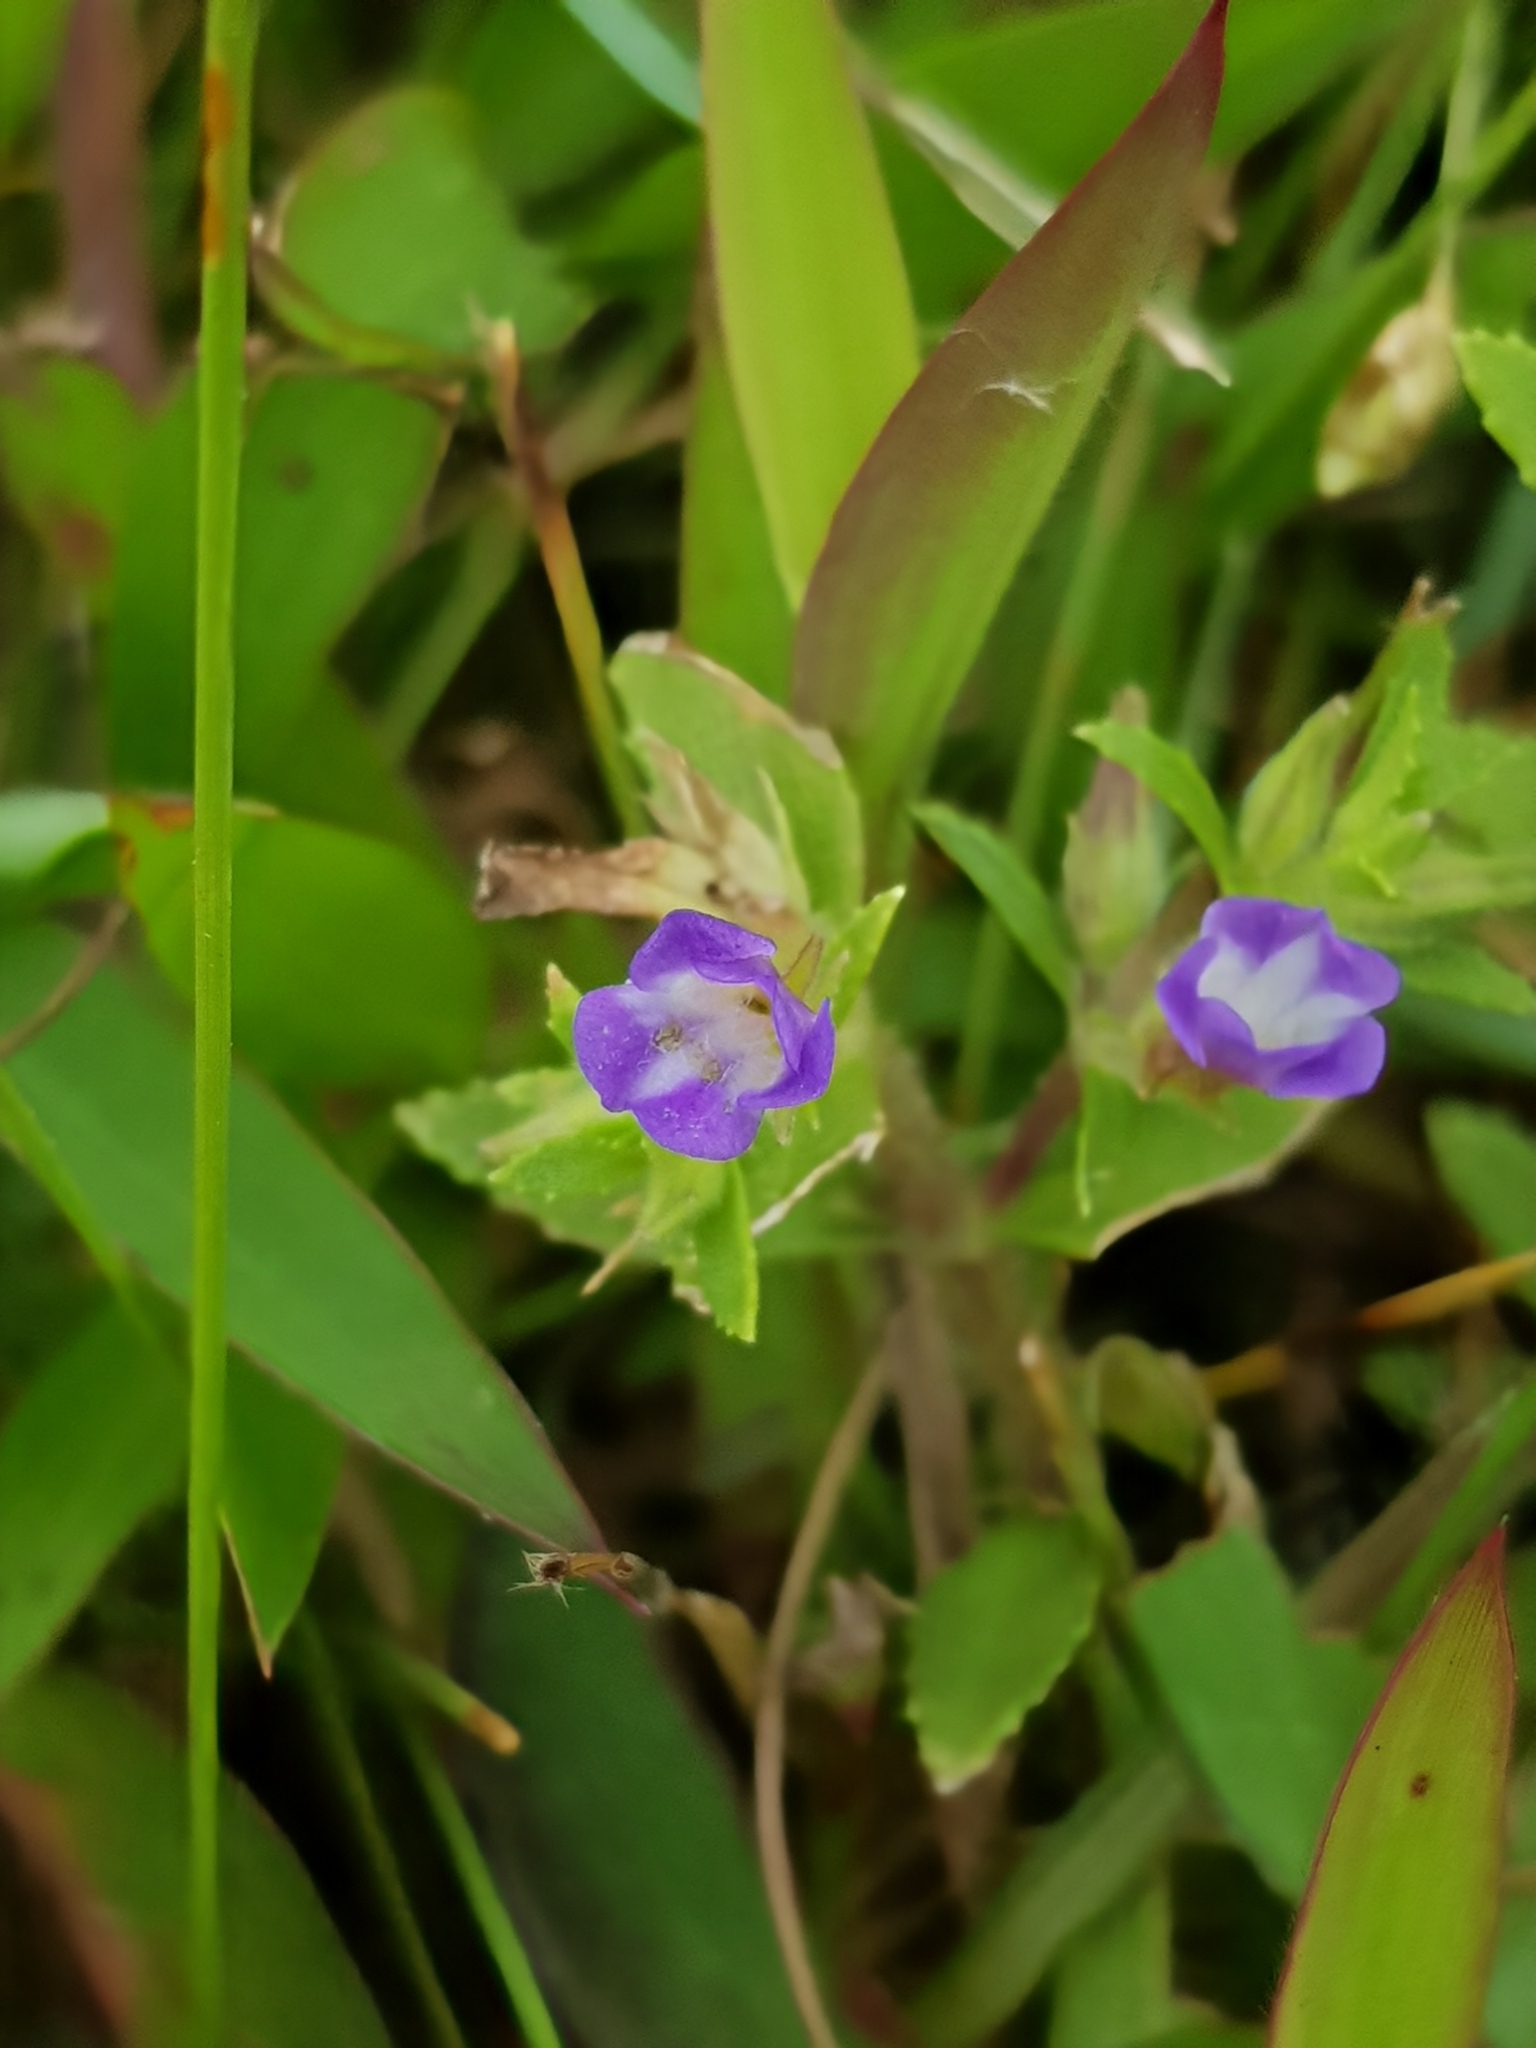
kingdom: Plantae
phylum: Tracheophyta
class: Magnoliopsida
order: Lamiales
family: Plantaginaceae
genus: Limnophila
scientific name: Limnophila chinensis
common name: Finger grass
